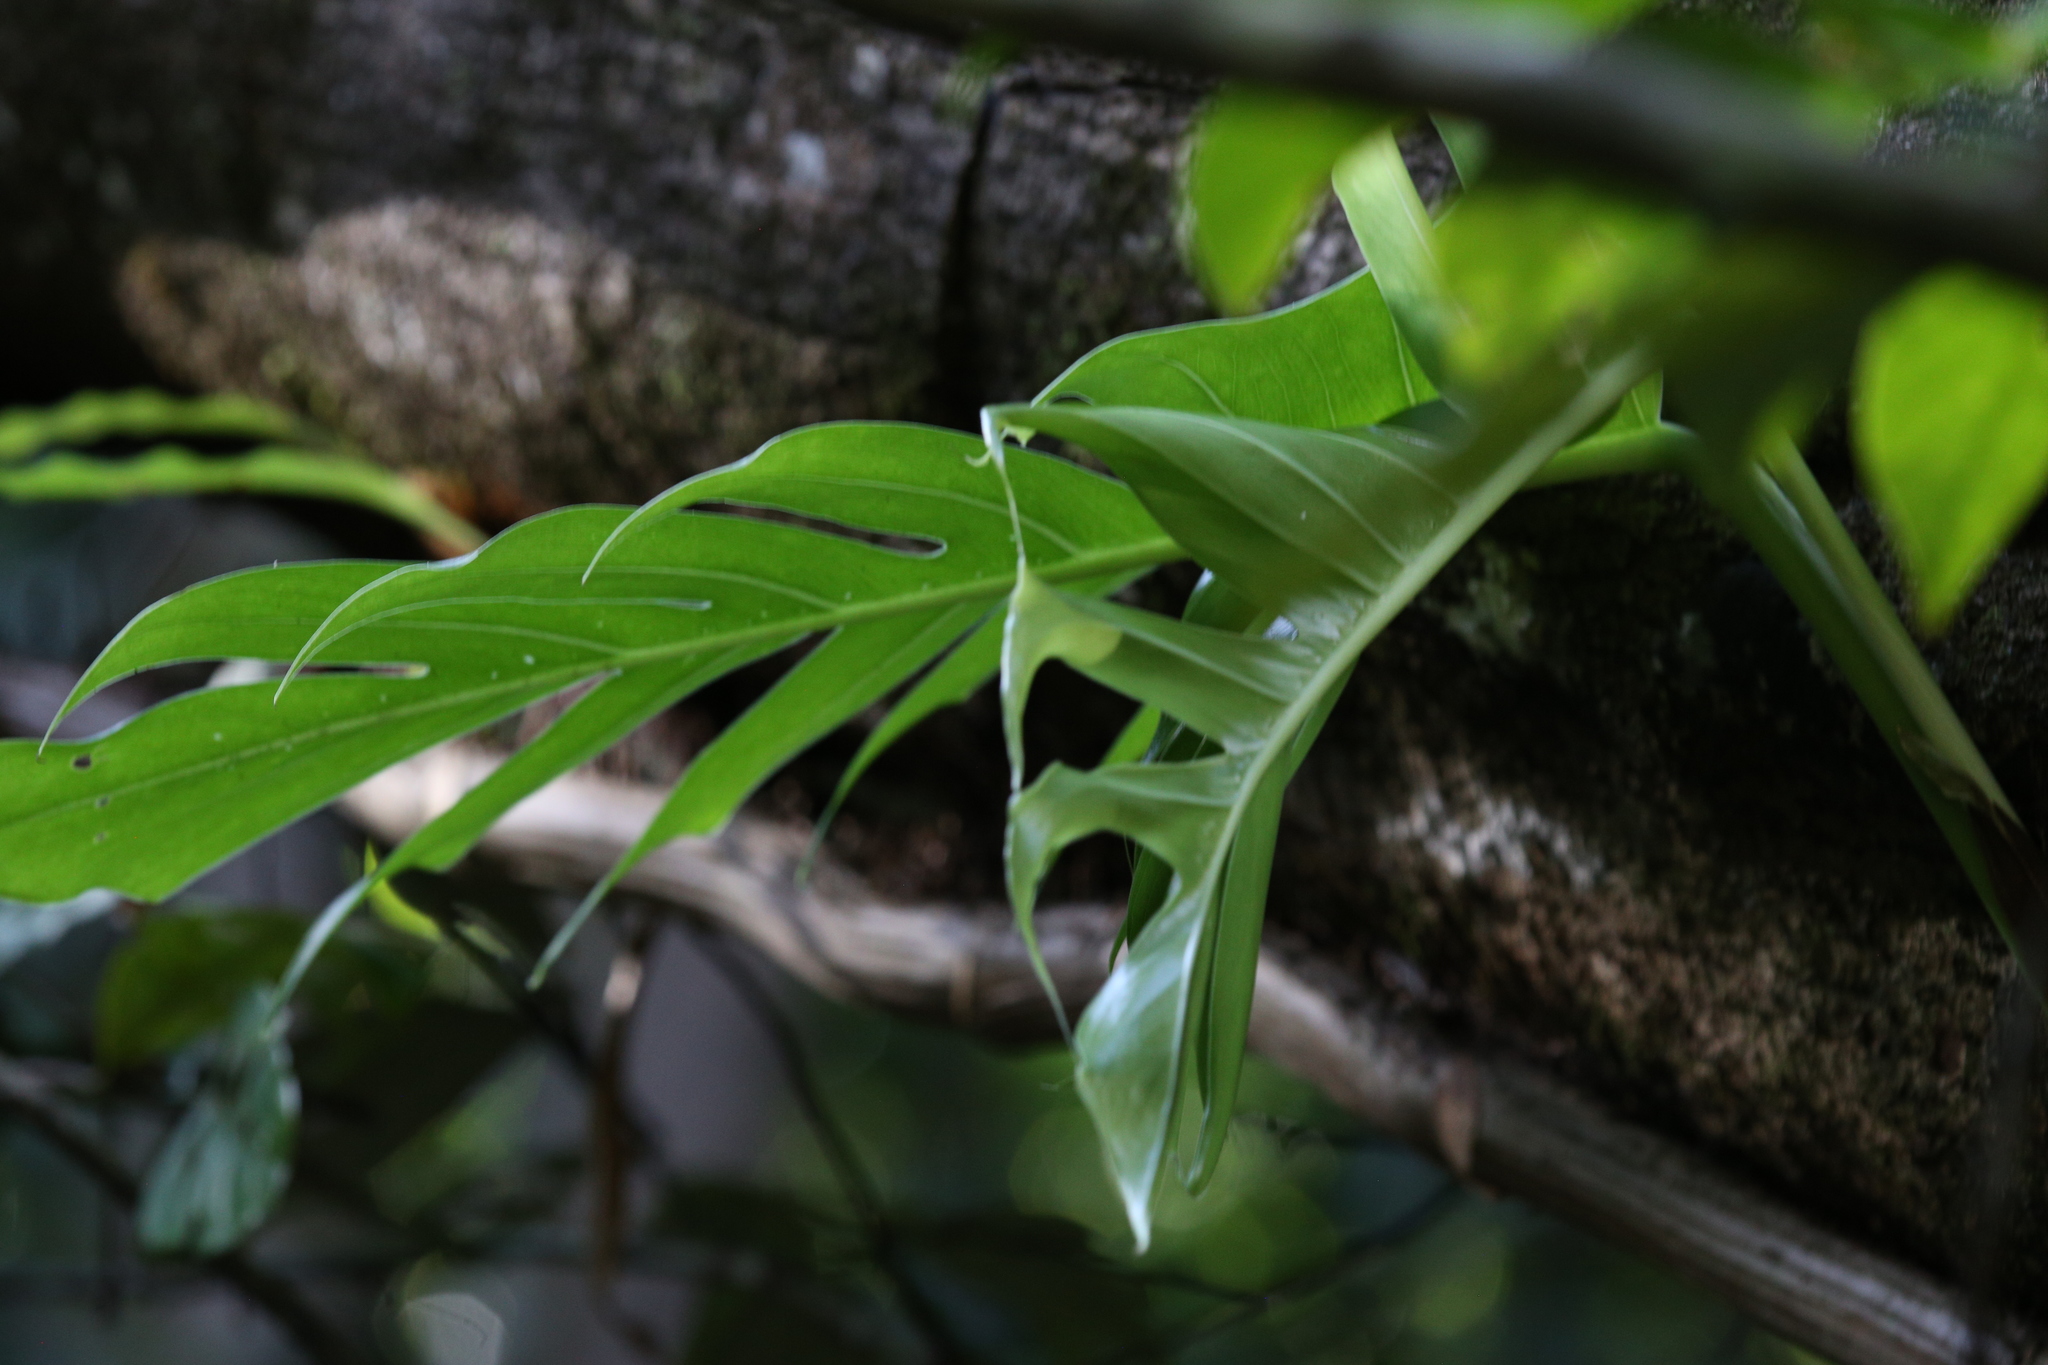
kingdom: Plantae
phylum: Tracheophyta
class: Liliopsida
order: Alismatales
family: Araceae
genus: Epipremnum
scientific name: Epipremnum pinnatum
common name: Centipede tongavine
